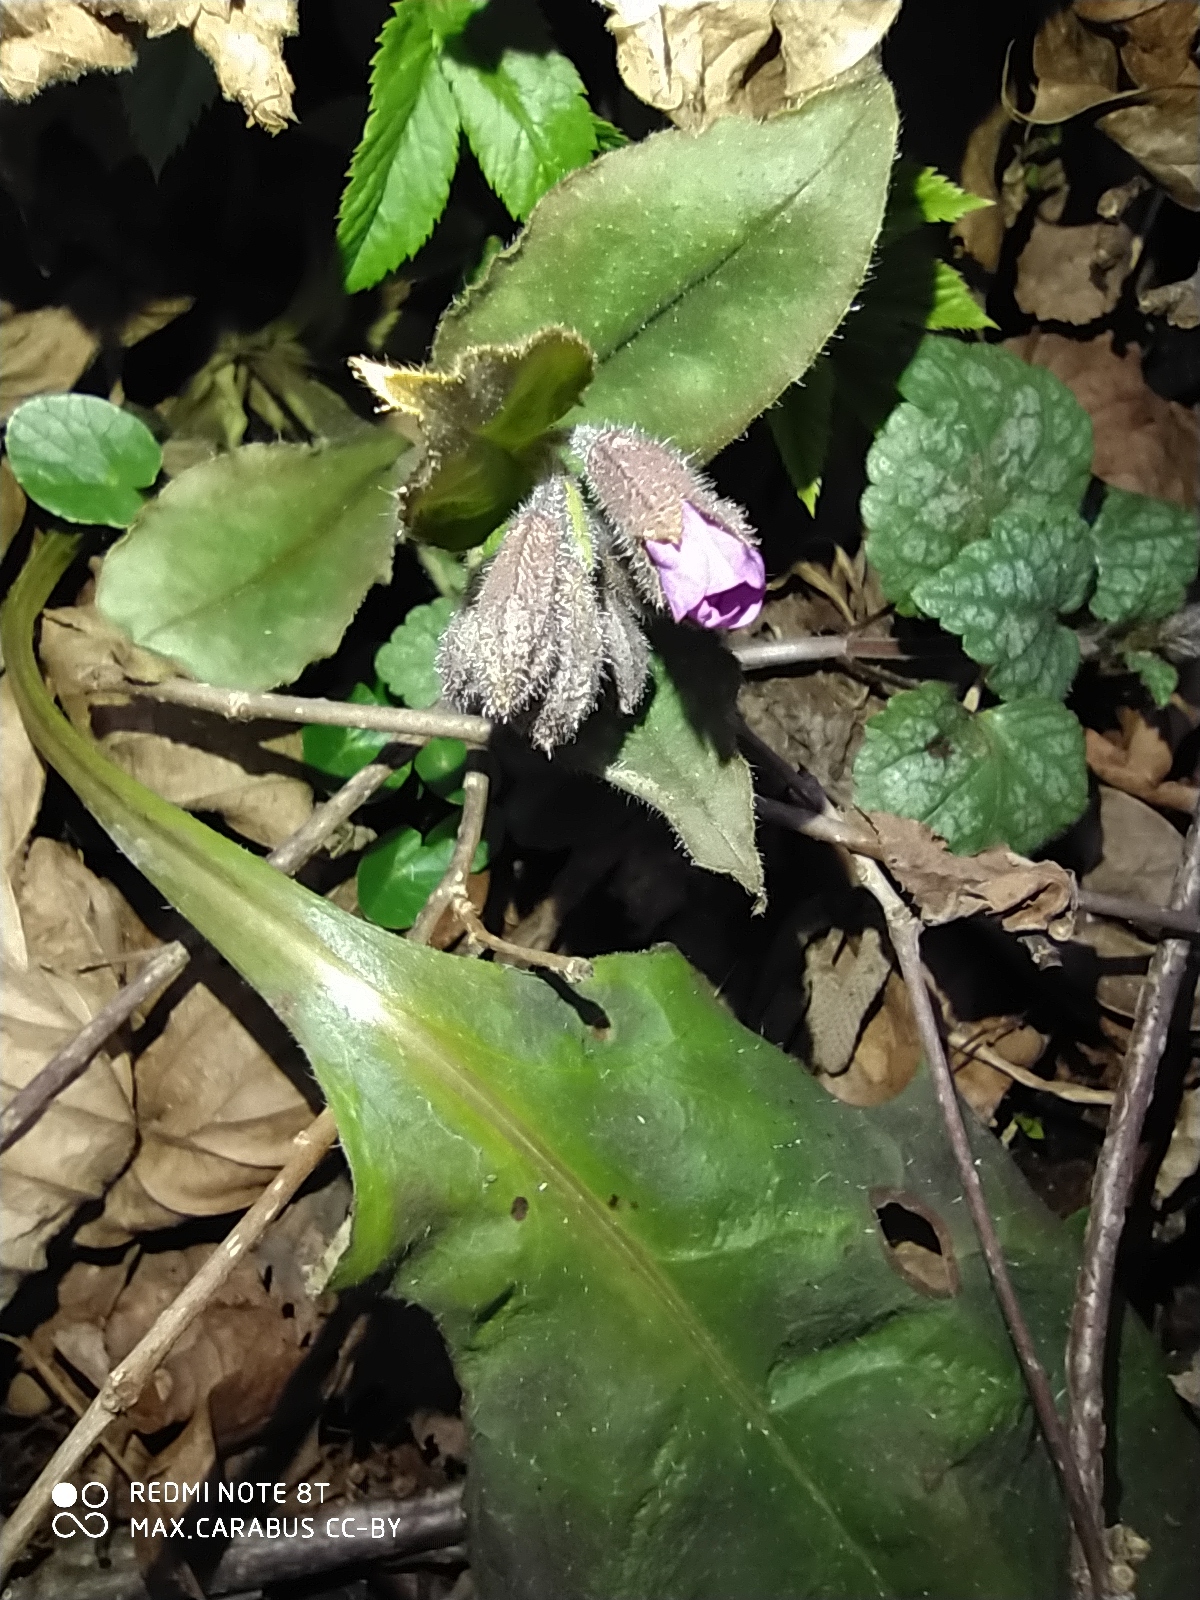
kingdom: Plantae
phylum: Tracheophyta
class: Magnoliopsida
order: Boraginales
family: Boraginaceae
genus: Pulmonaria
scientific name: Pulmonaria obscura
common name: Suffolk lungwort
